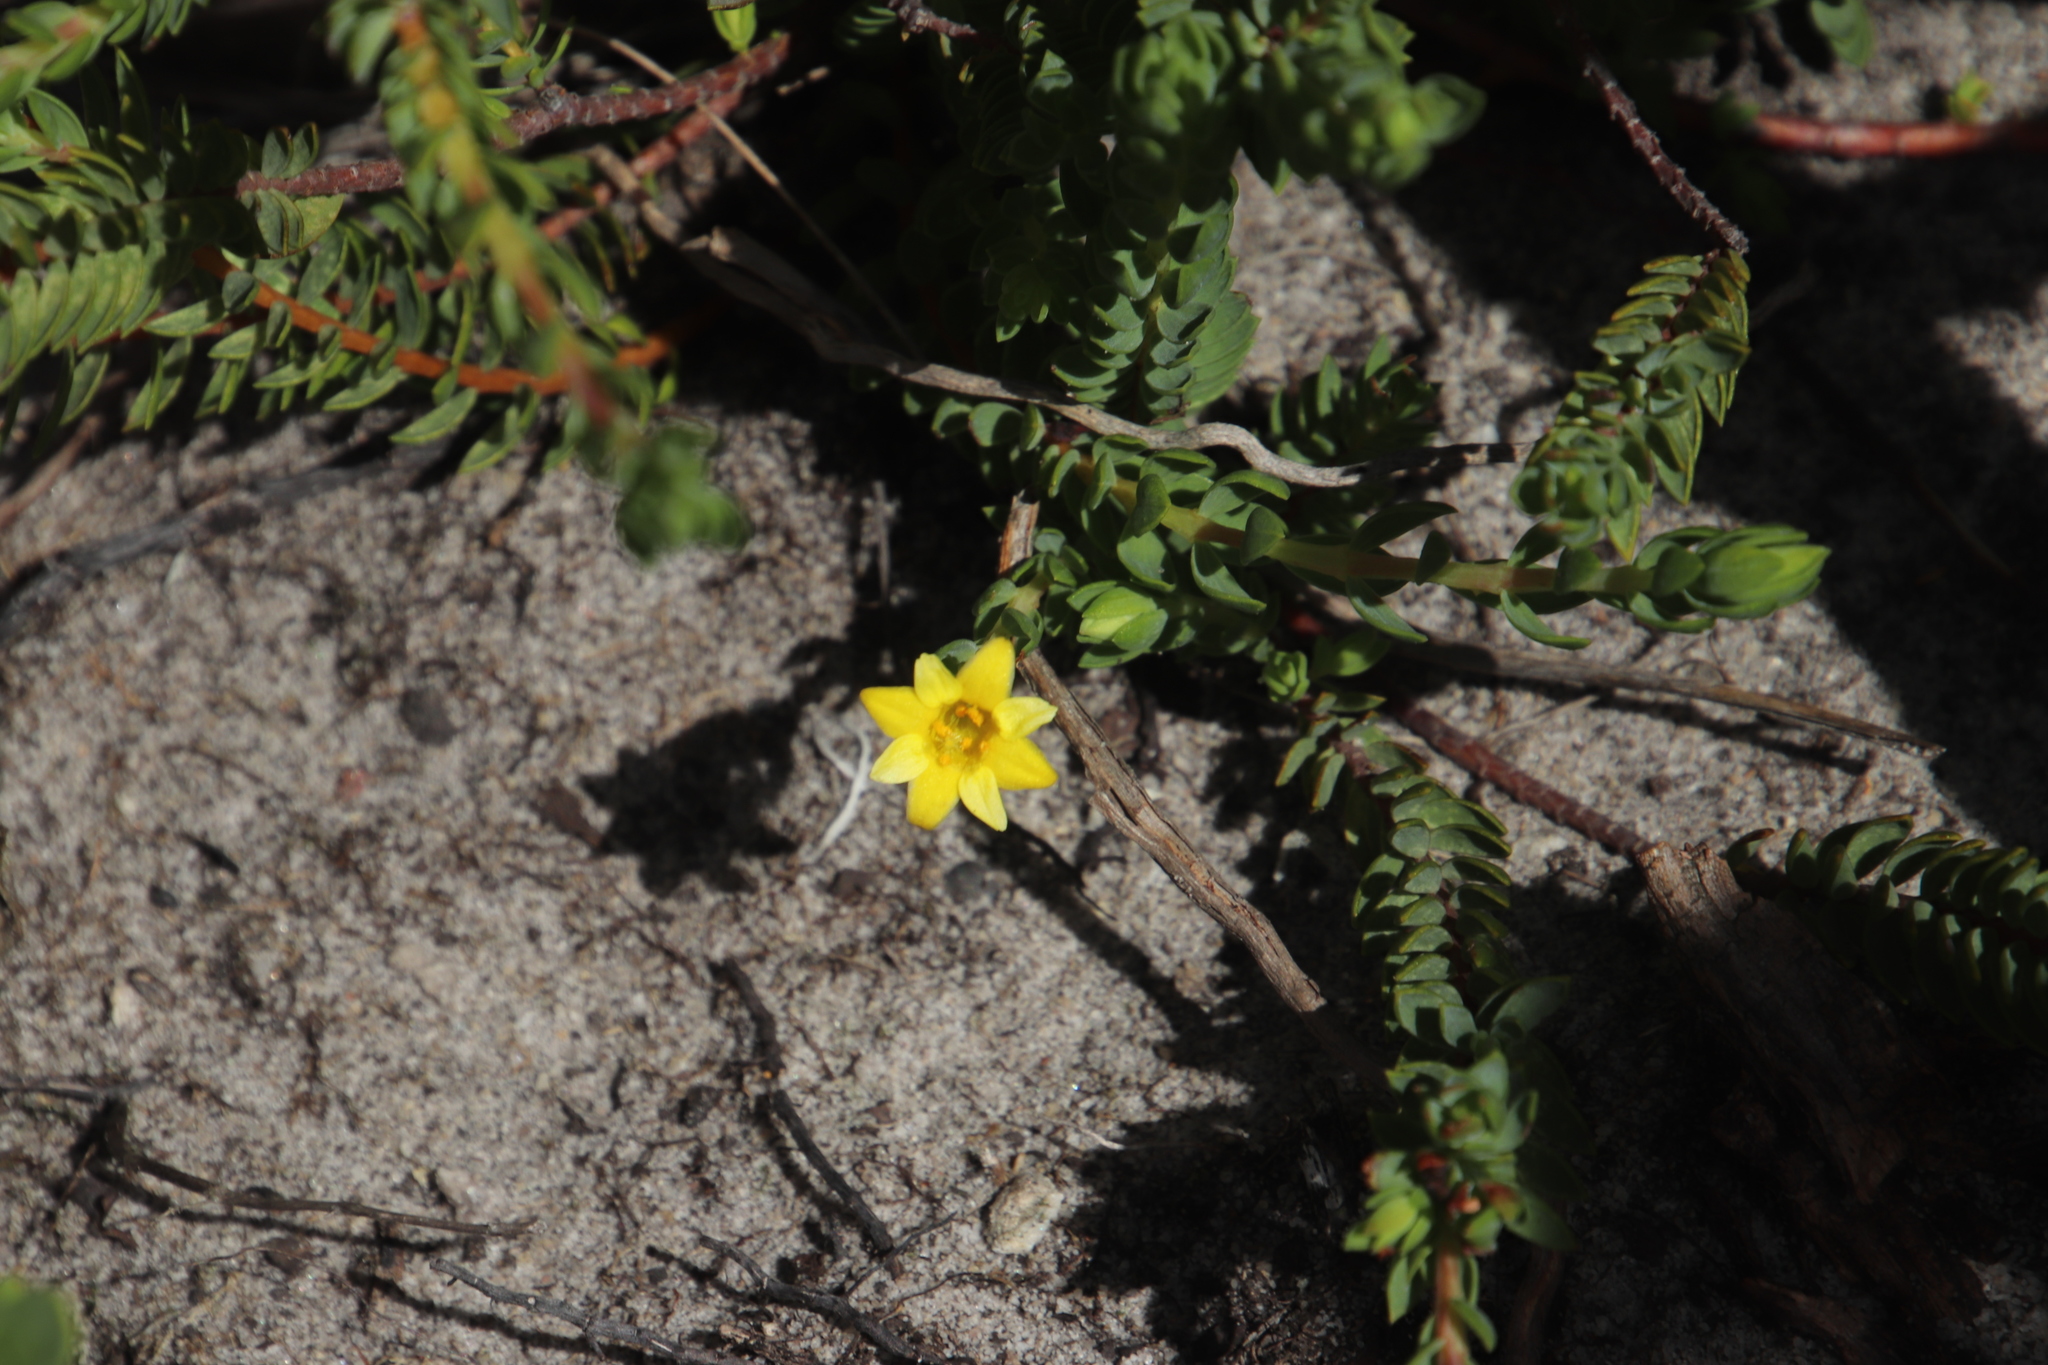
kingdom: Plantae
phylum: Tracheophyta
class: Magnoliopsida
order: Malvales
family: Thymelaeaceae
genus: Gnidia
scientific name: Gnidia juniperifolia
